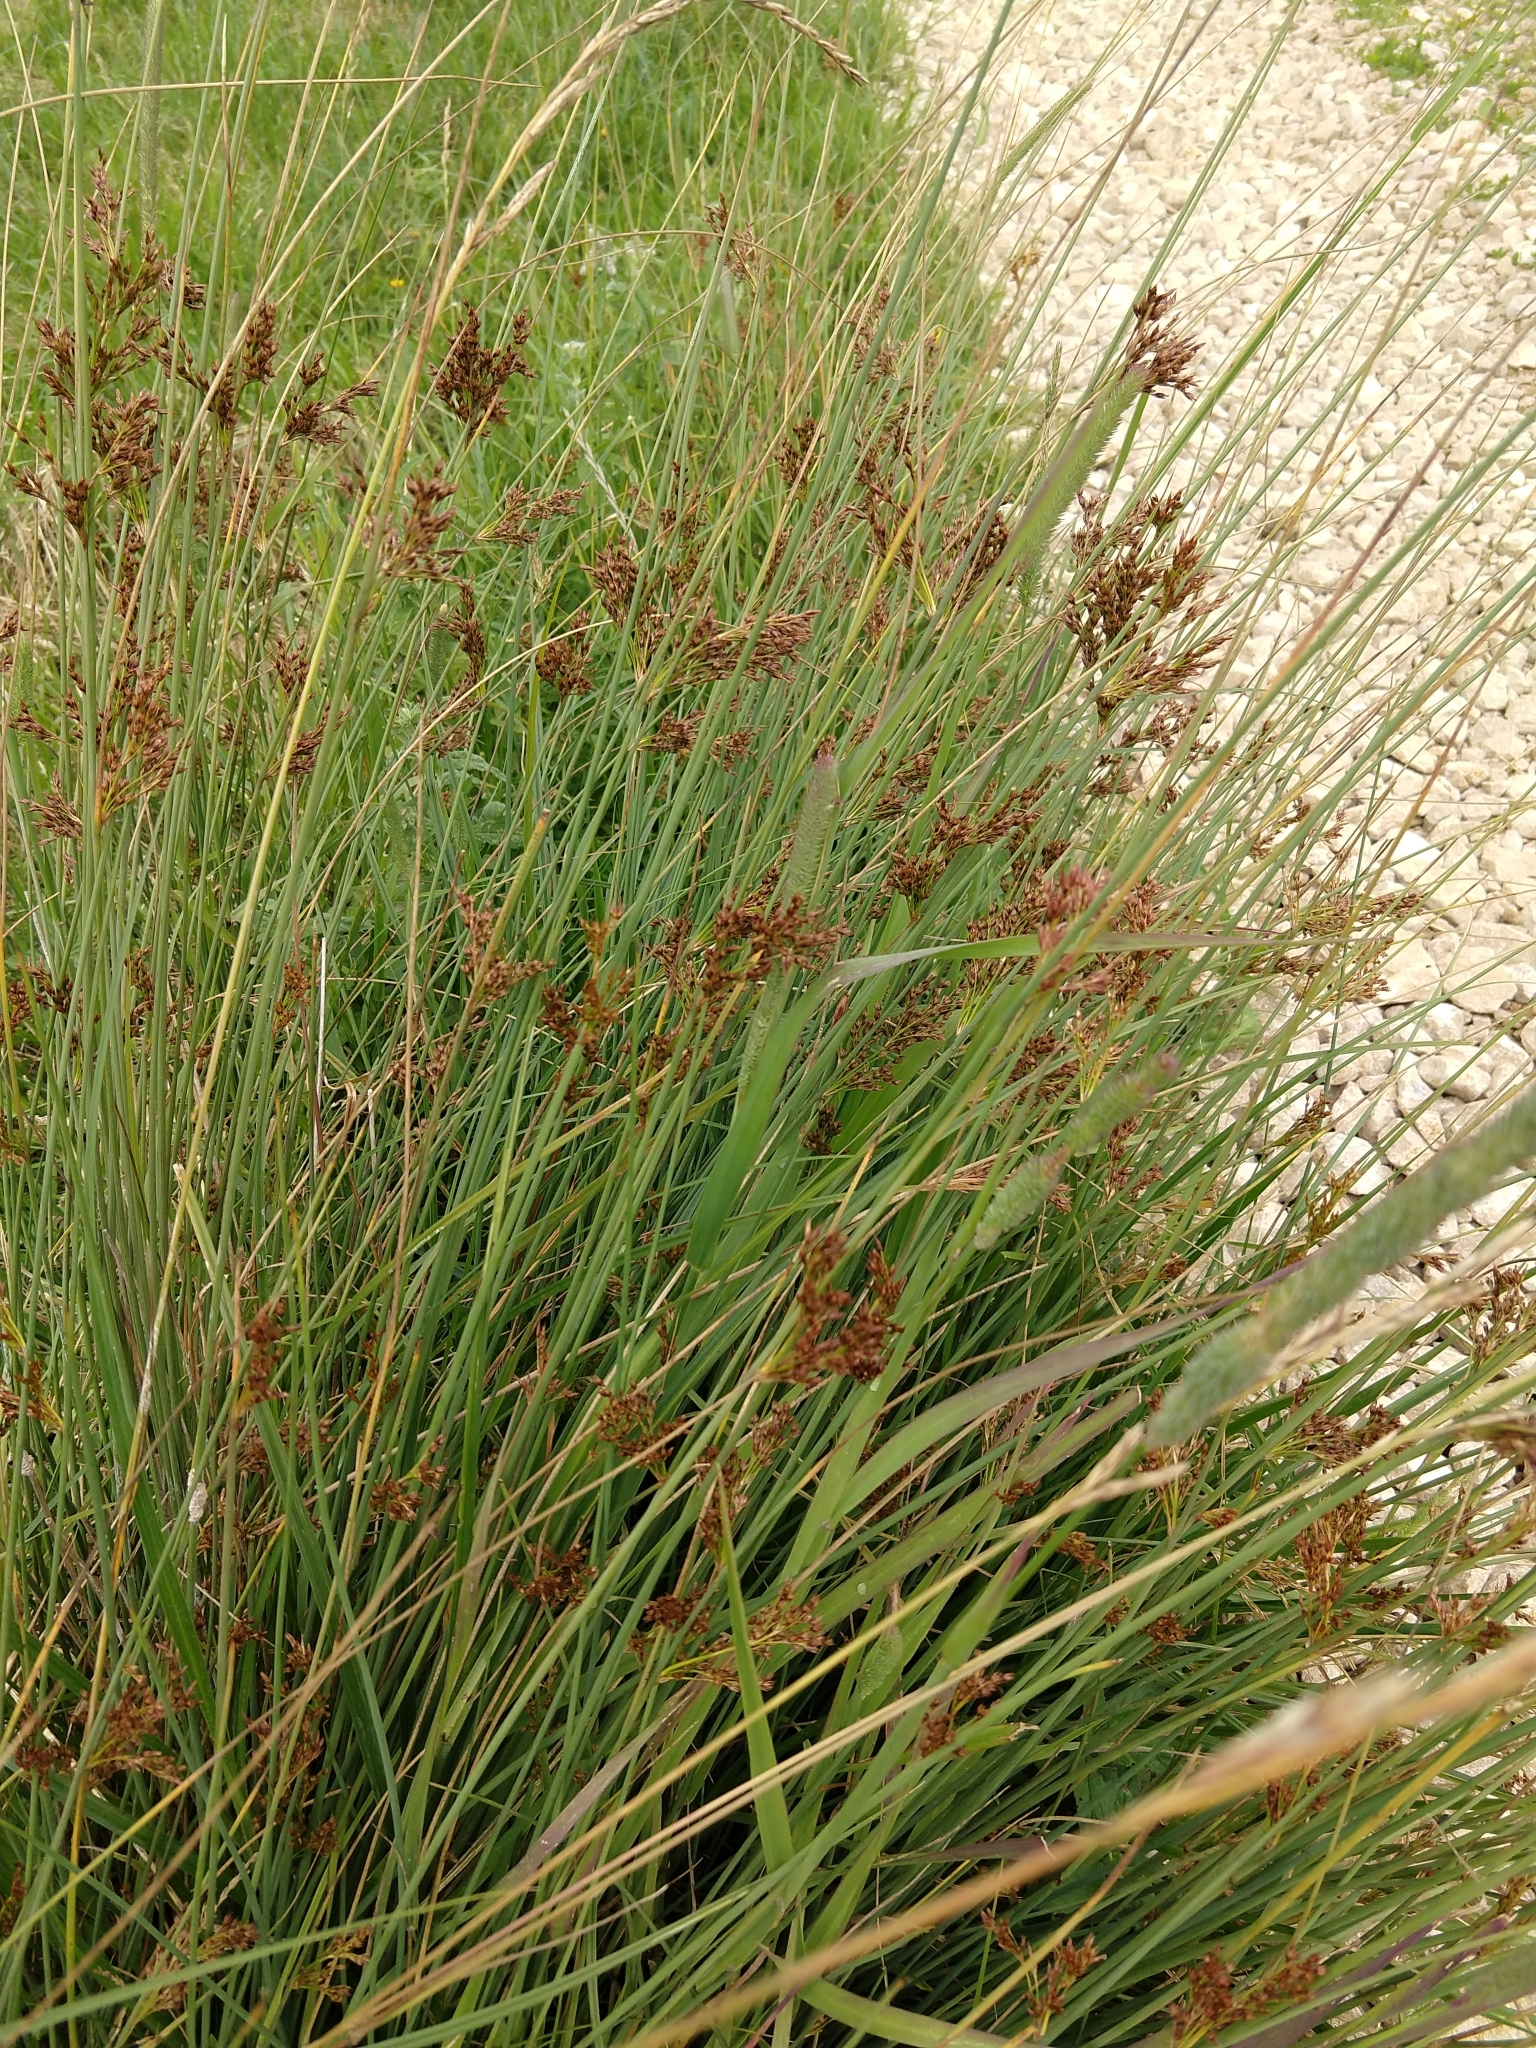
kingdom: Plantae
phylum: Tracheophyta
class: Liliopsida
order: Poales
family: Juncaceae
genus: Juncus
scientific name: Juncus inflexus
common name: Hard rush
